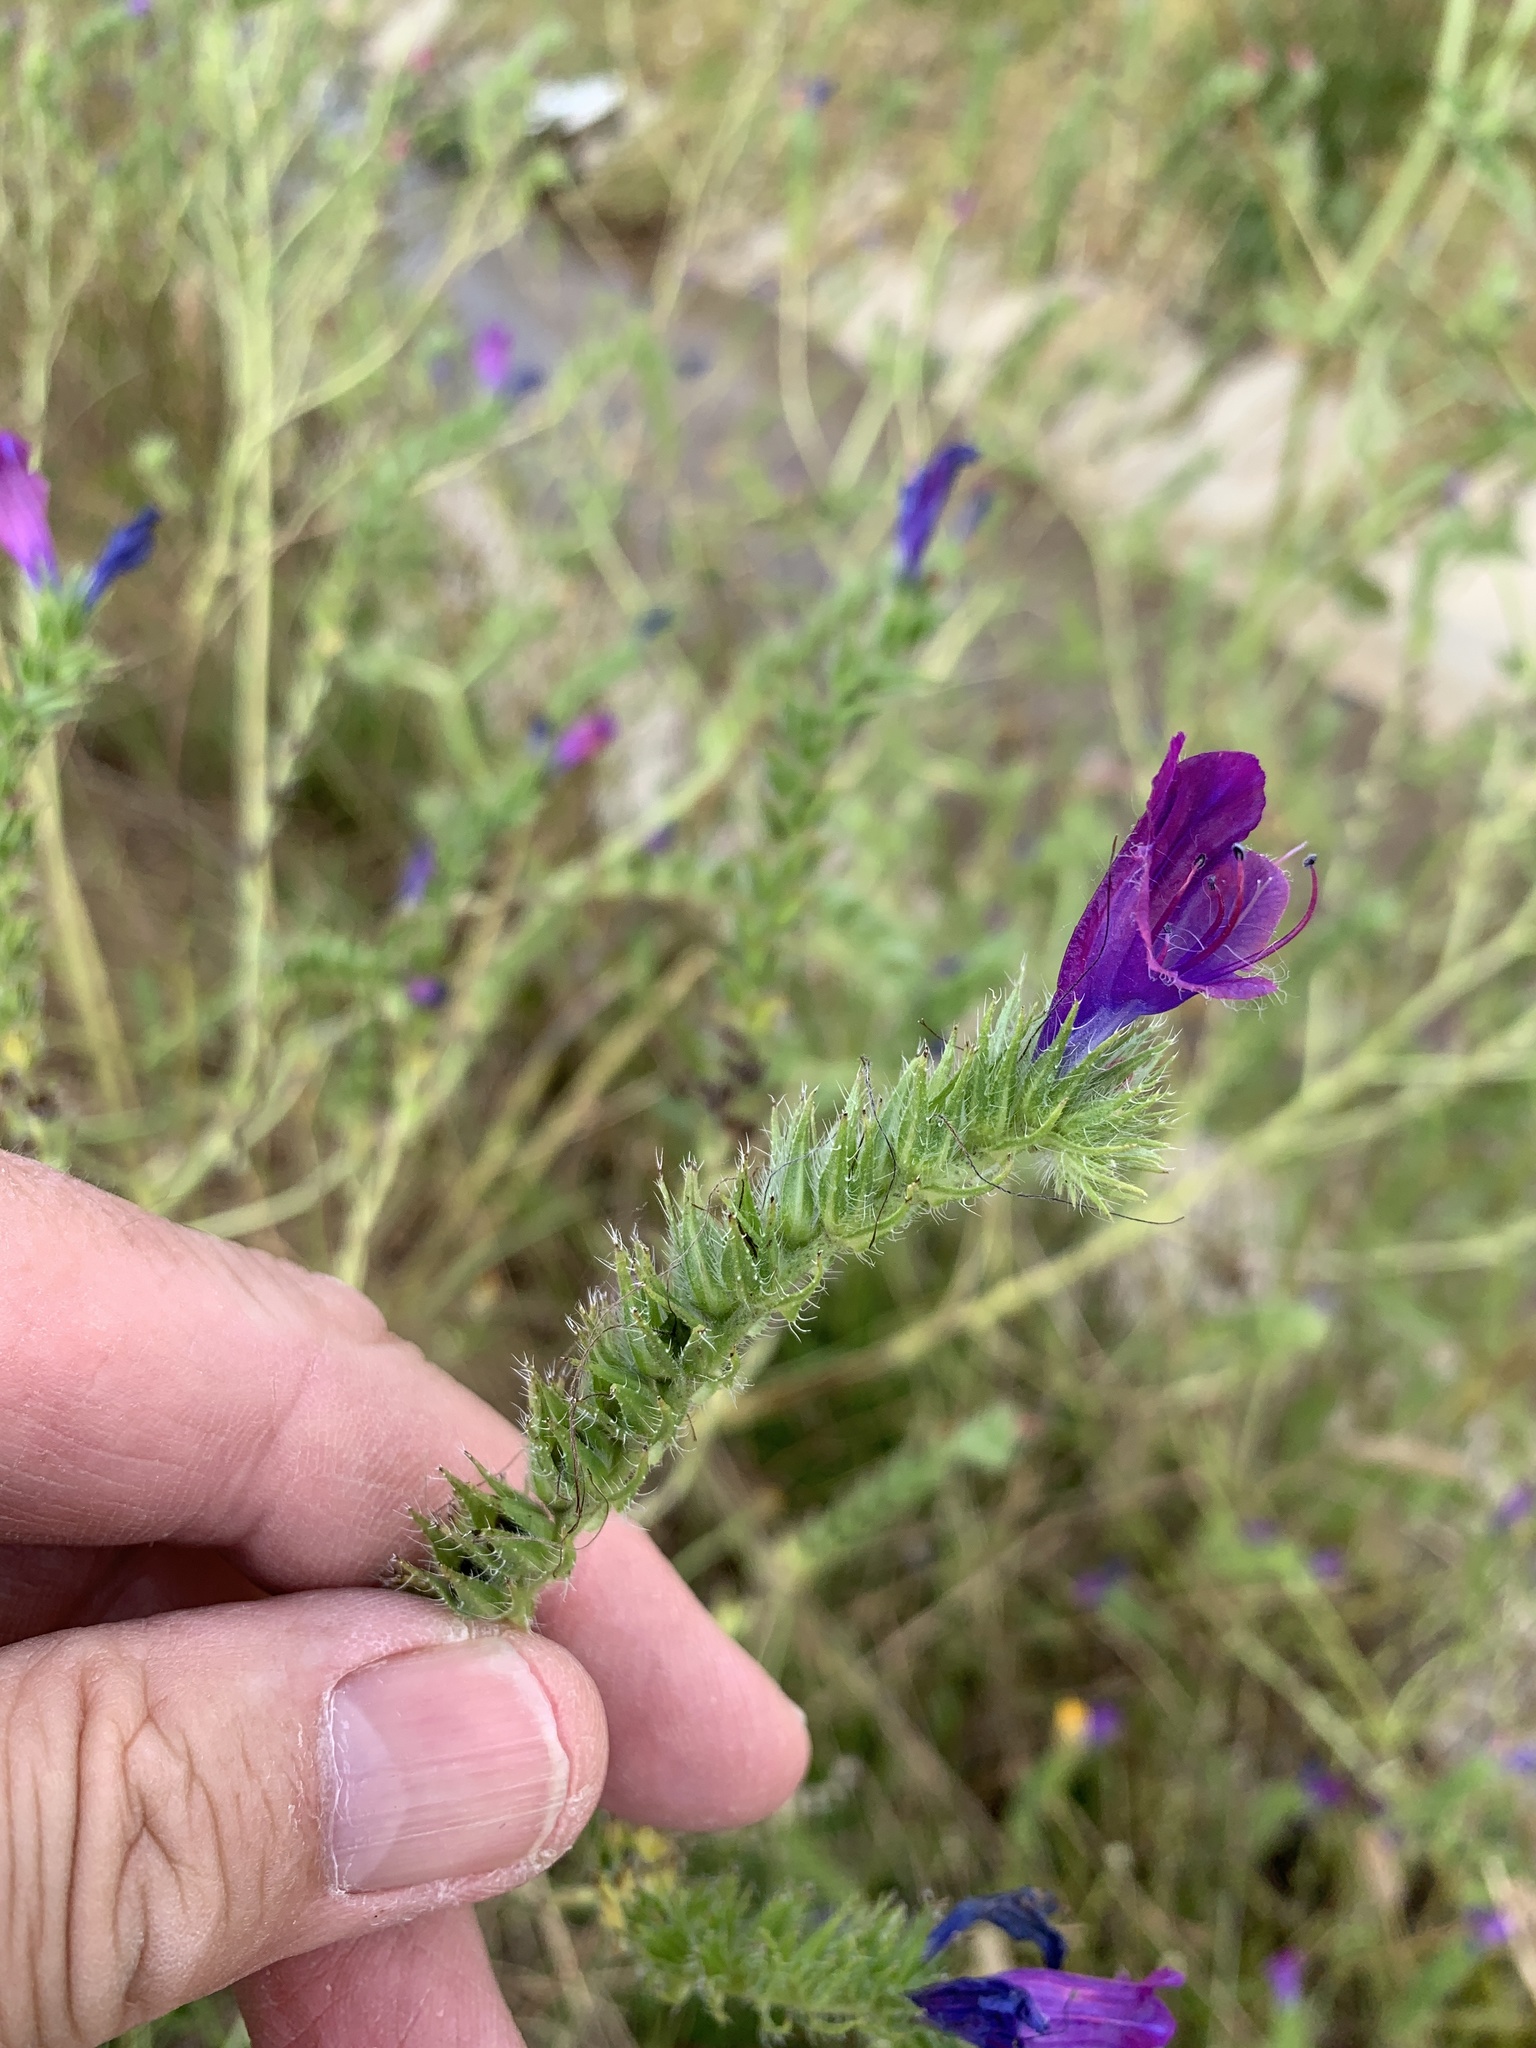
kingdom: Plantae
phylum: Tracheophyta
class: Magnoliopsida
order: Boraginales
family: Boraginaceae
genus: Echium
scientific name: Echium plantagineum
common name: Purple viper's-bugloss
